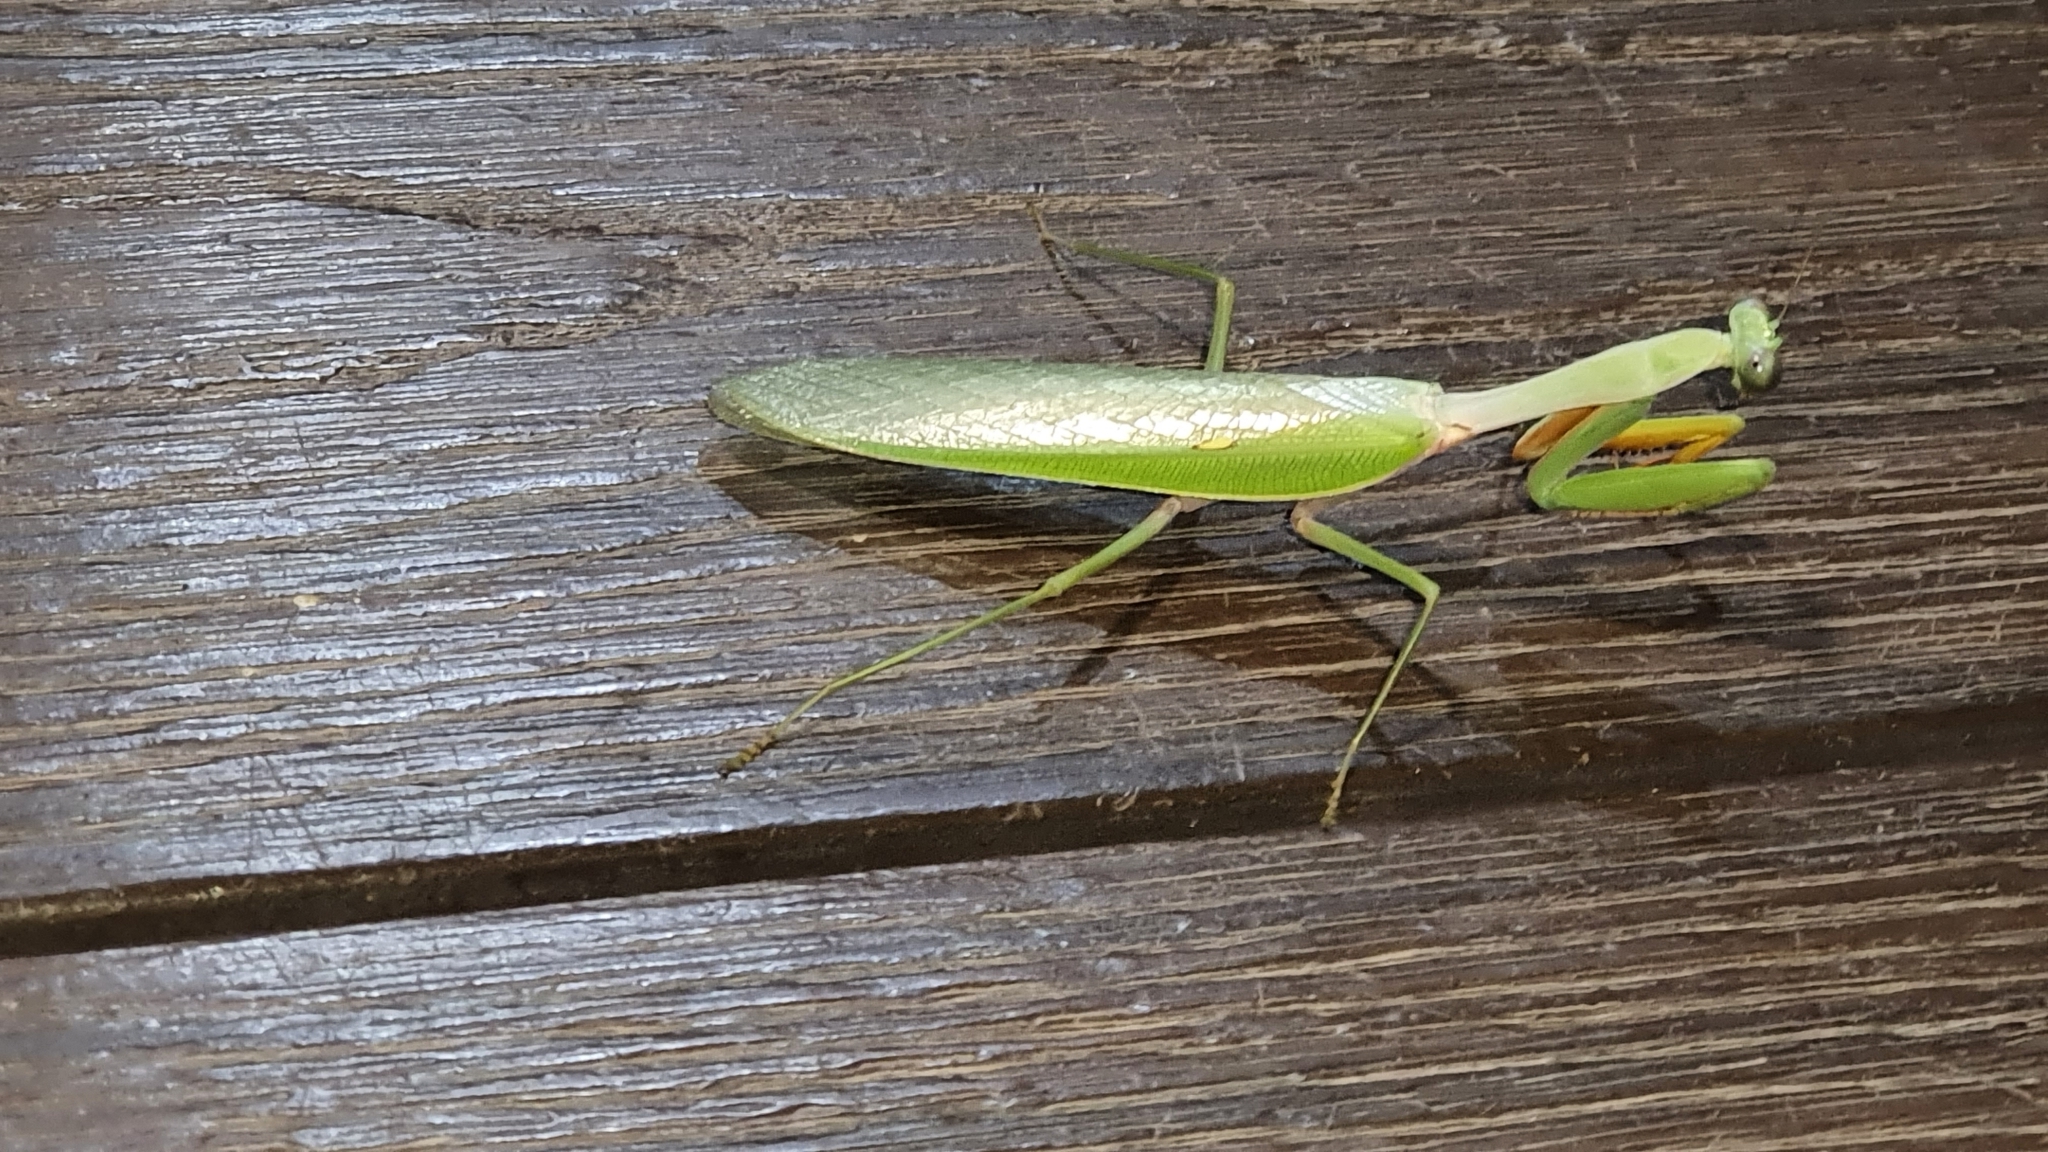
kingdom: Animalia
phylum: Arthropoda
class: Insecta
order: Mantodea
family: Mantidae
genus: Hierodula
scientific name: Hierodula venosa
